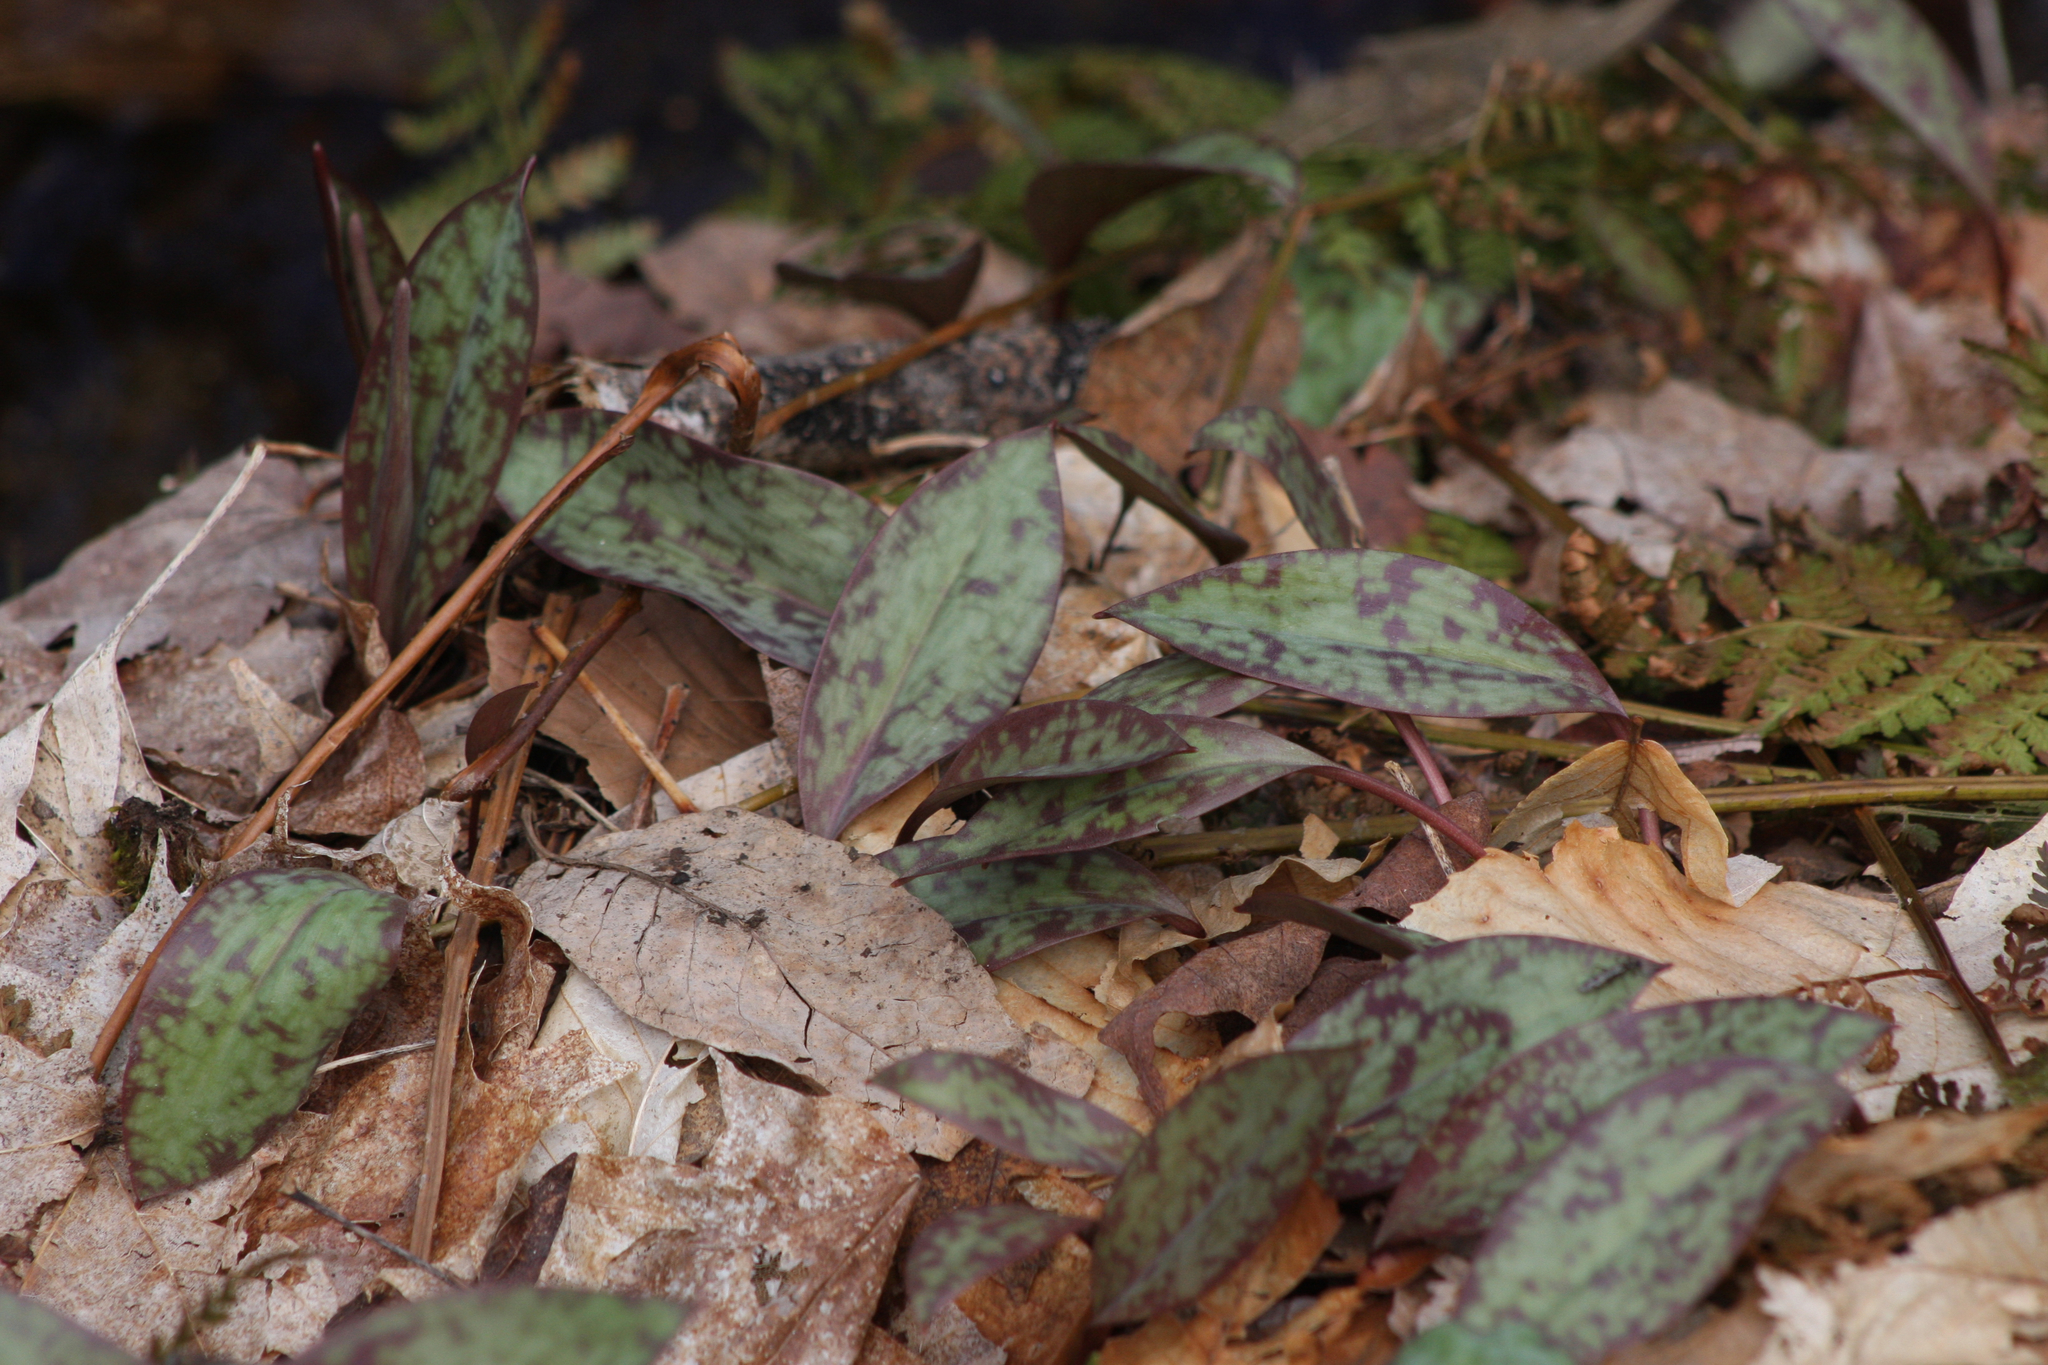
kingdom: Plantae
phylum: Tracheophyta
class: Liliopsida
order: Liliales
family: Liliaceae
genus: Erythronium
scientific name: Erythronium americanum
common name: Yellow adder's-tongue
